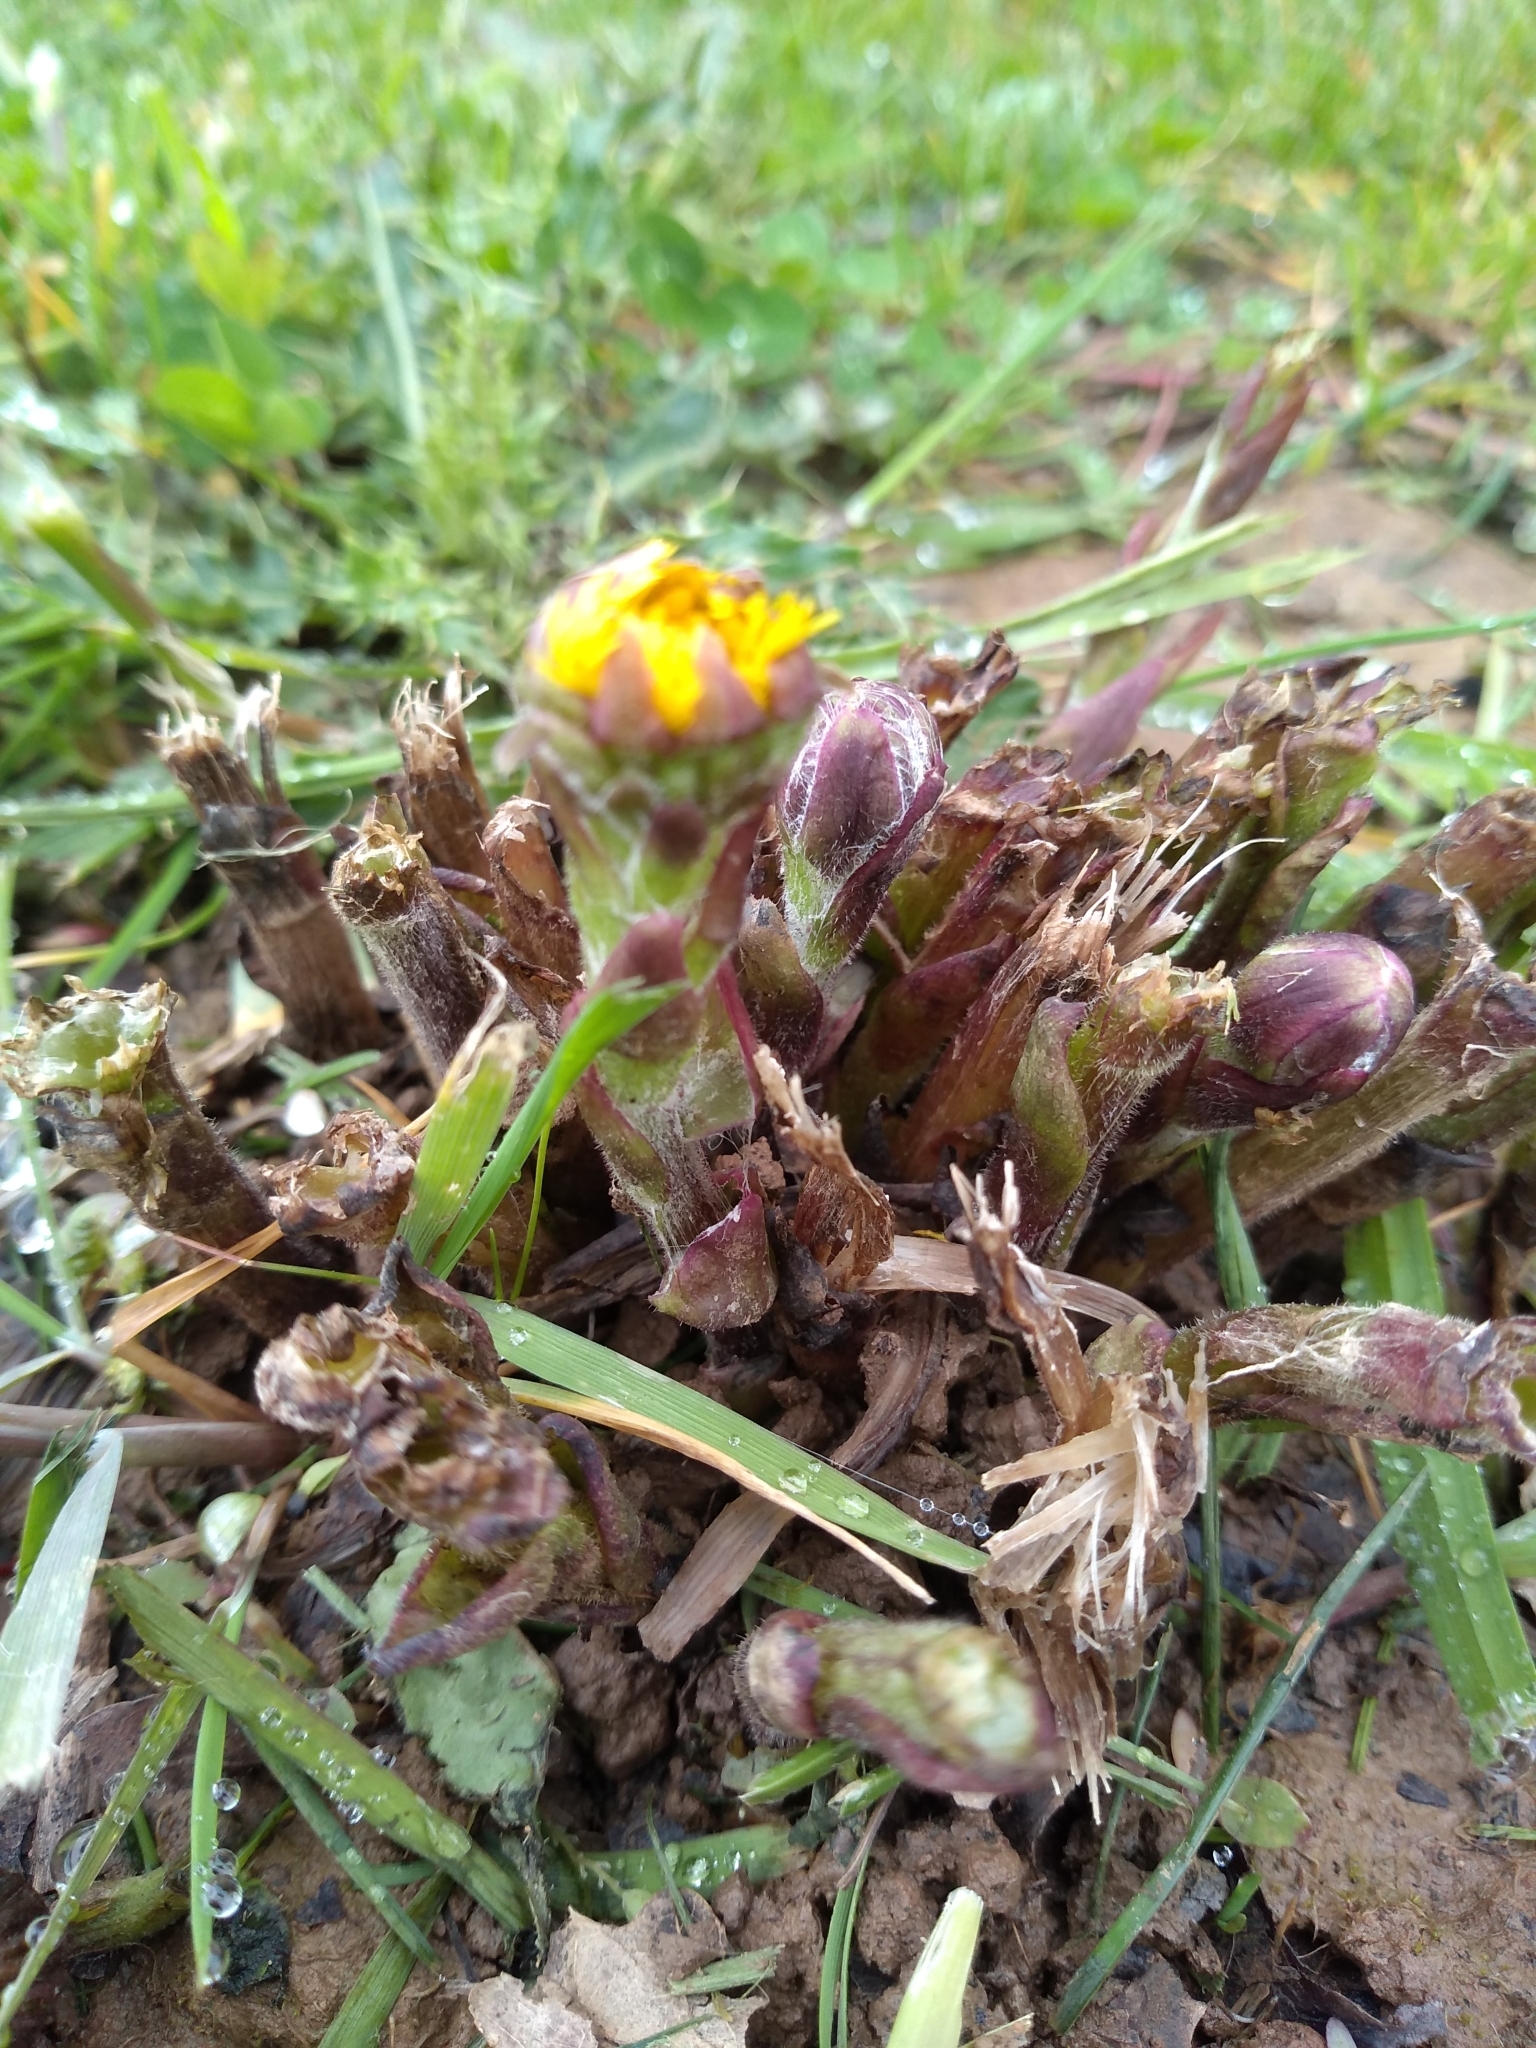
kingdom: Plantae
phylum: Tracheophyta
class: Magnoliopsida
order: Asterales
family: Asteraceae
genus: Tussilago
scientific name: Tussilago farfara
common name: Coltsfoot
